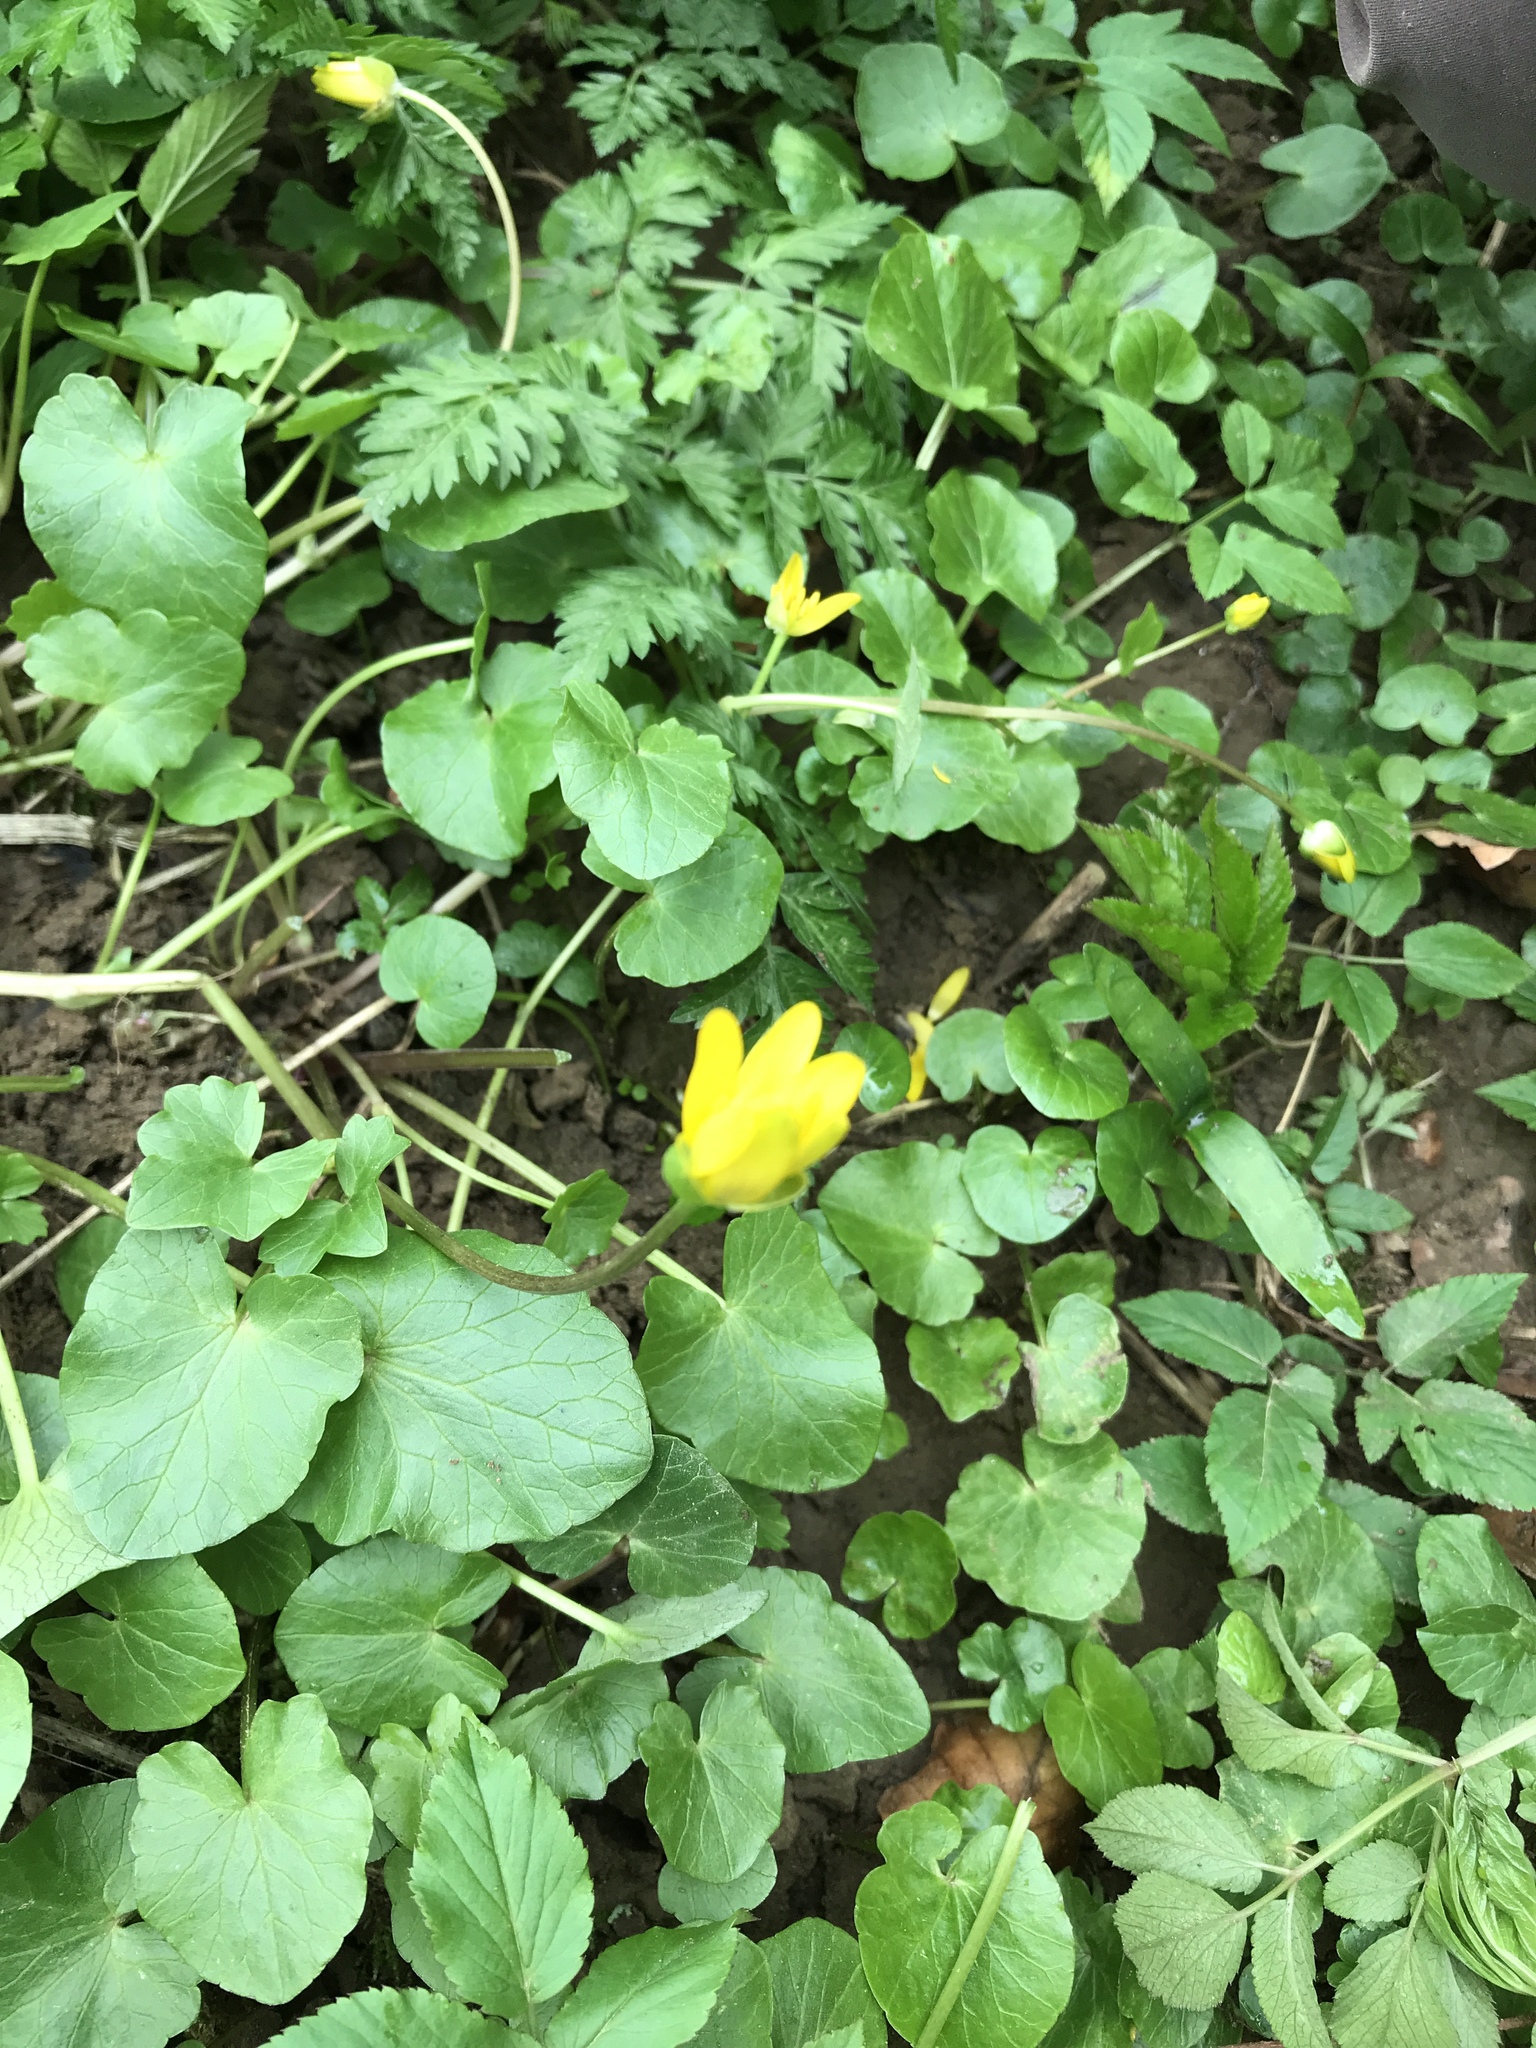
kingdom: Plantae
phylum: Tracheophyta
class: Magnoliopsida
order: Ranunculales
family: Ranunculaceae
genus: Ficaria
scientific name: Ficaria verna
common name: Lesser celandine
